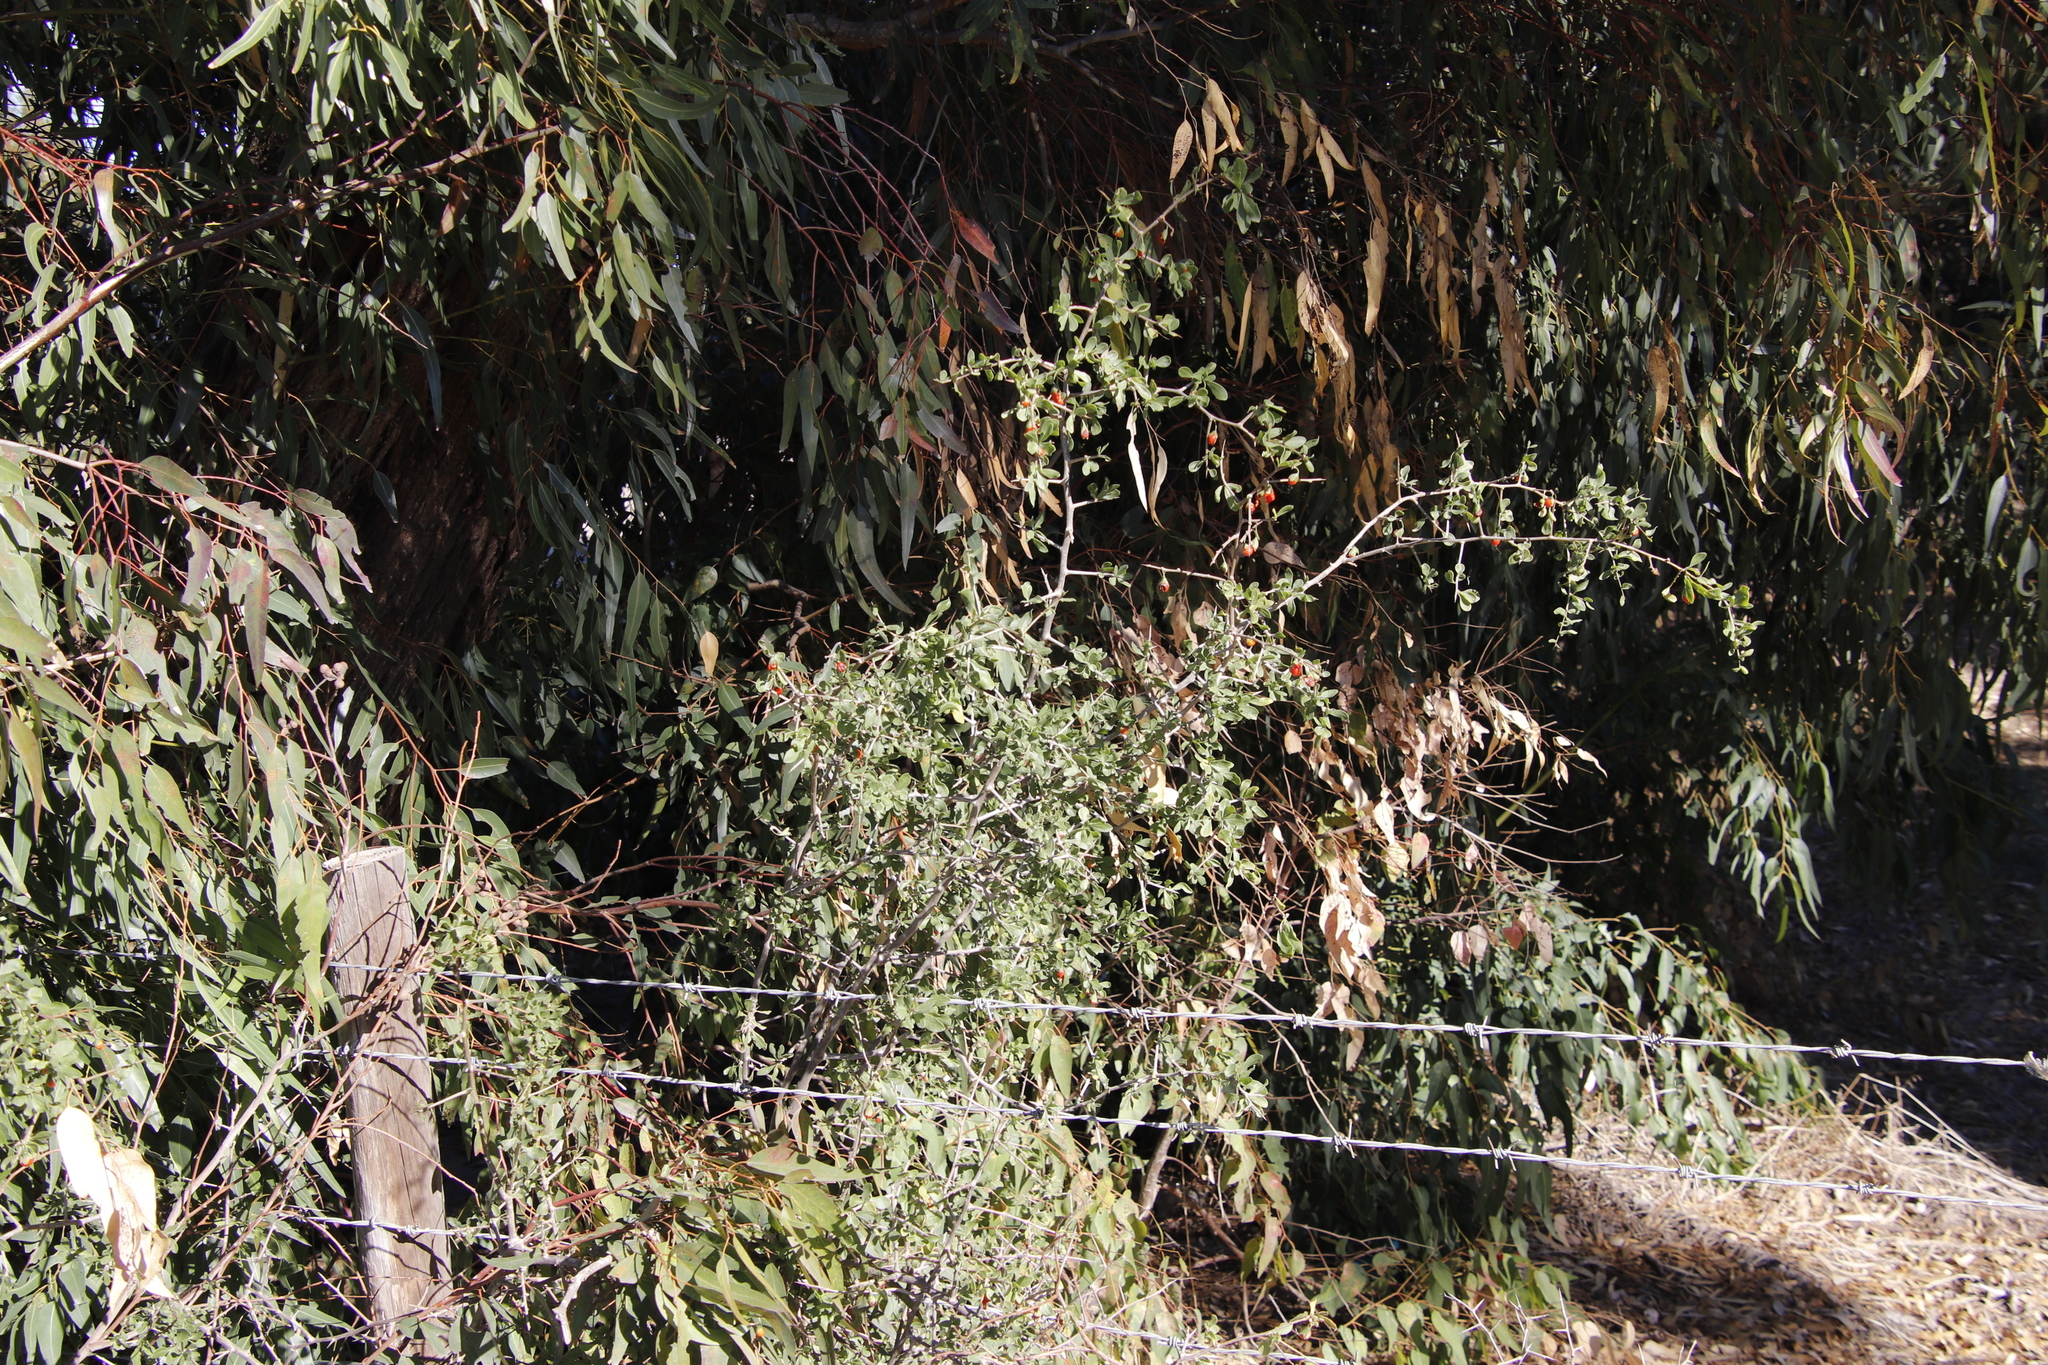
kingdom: Plantae
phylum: Tracheophyta
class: Magnoliopsida
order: Solanales
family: Solanaceae
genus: Lycium
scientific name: Lycium ferocissimum
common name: African boxthorn
